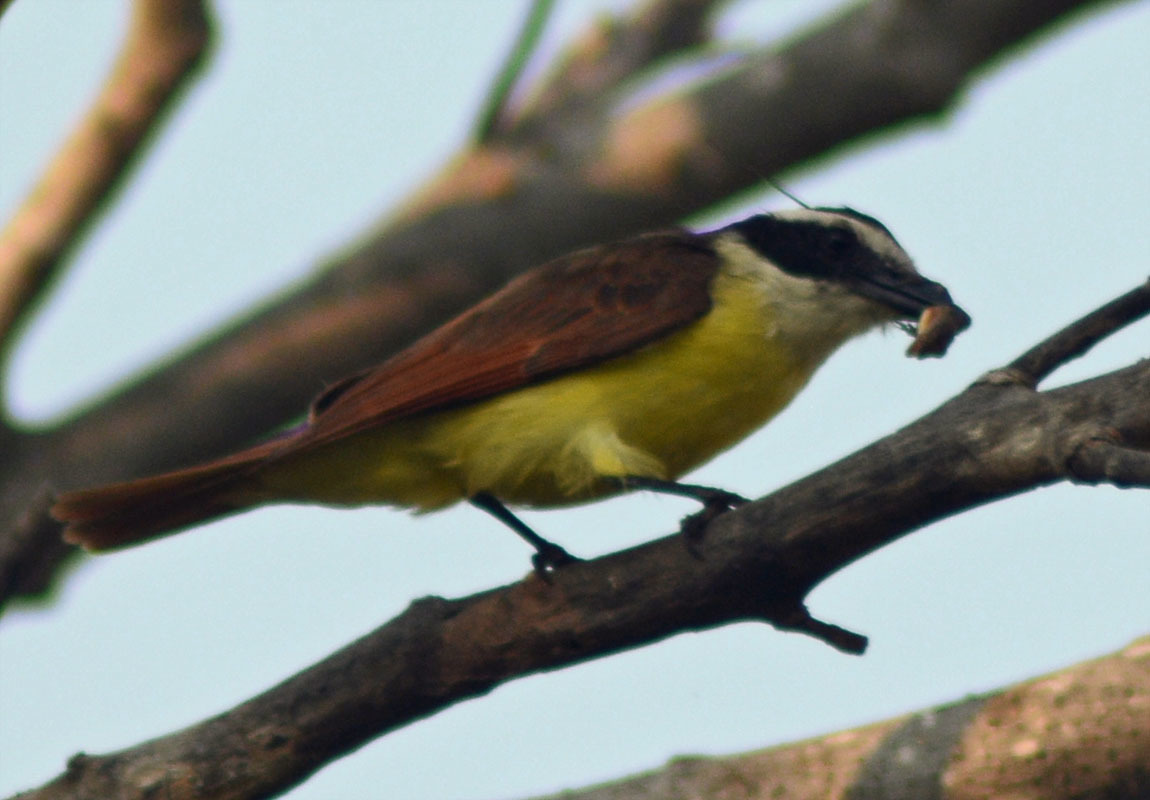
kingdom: Animalia
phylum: Chordata
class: Aves
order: Passeriformes
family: Tyrannidae
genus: Pitangus
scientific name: Pitangus sulphuratus
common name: Great kiskadee
